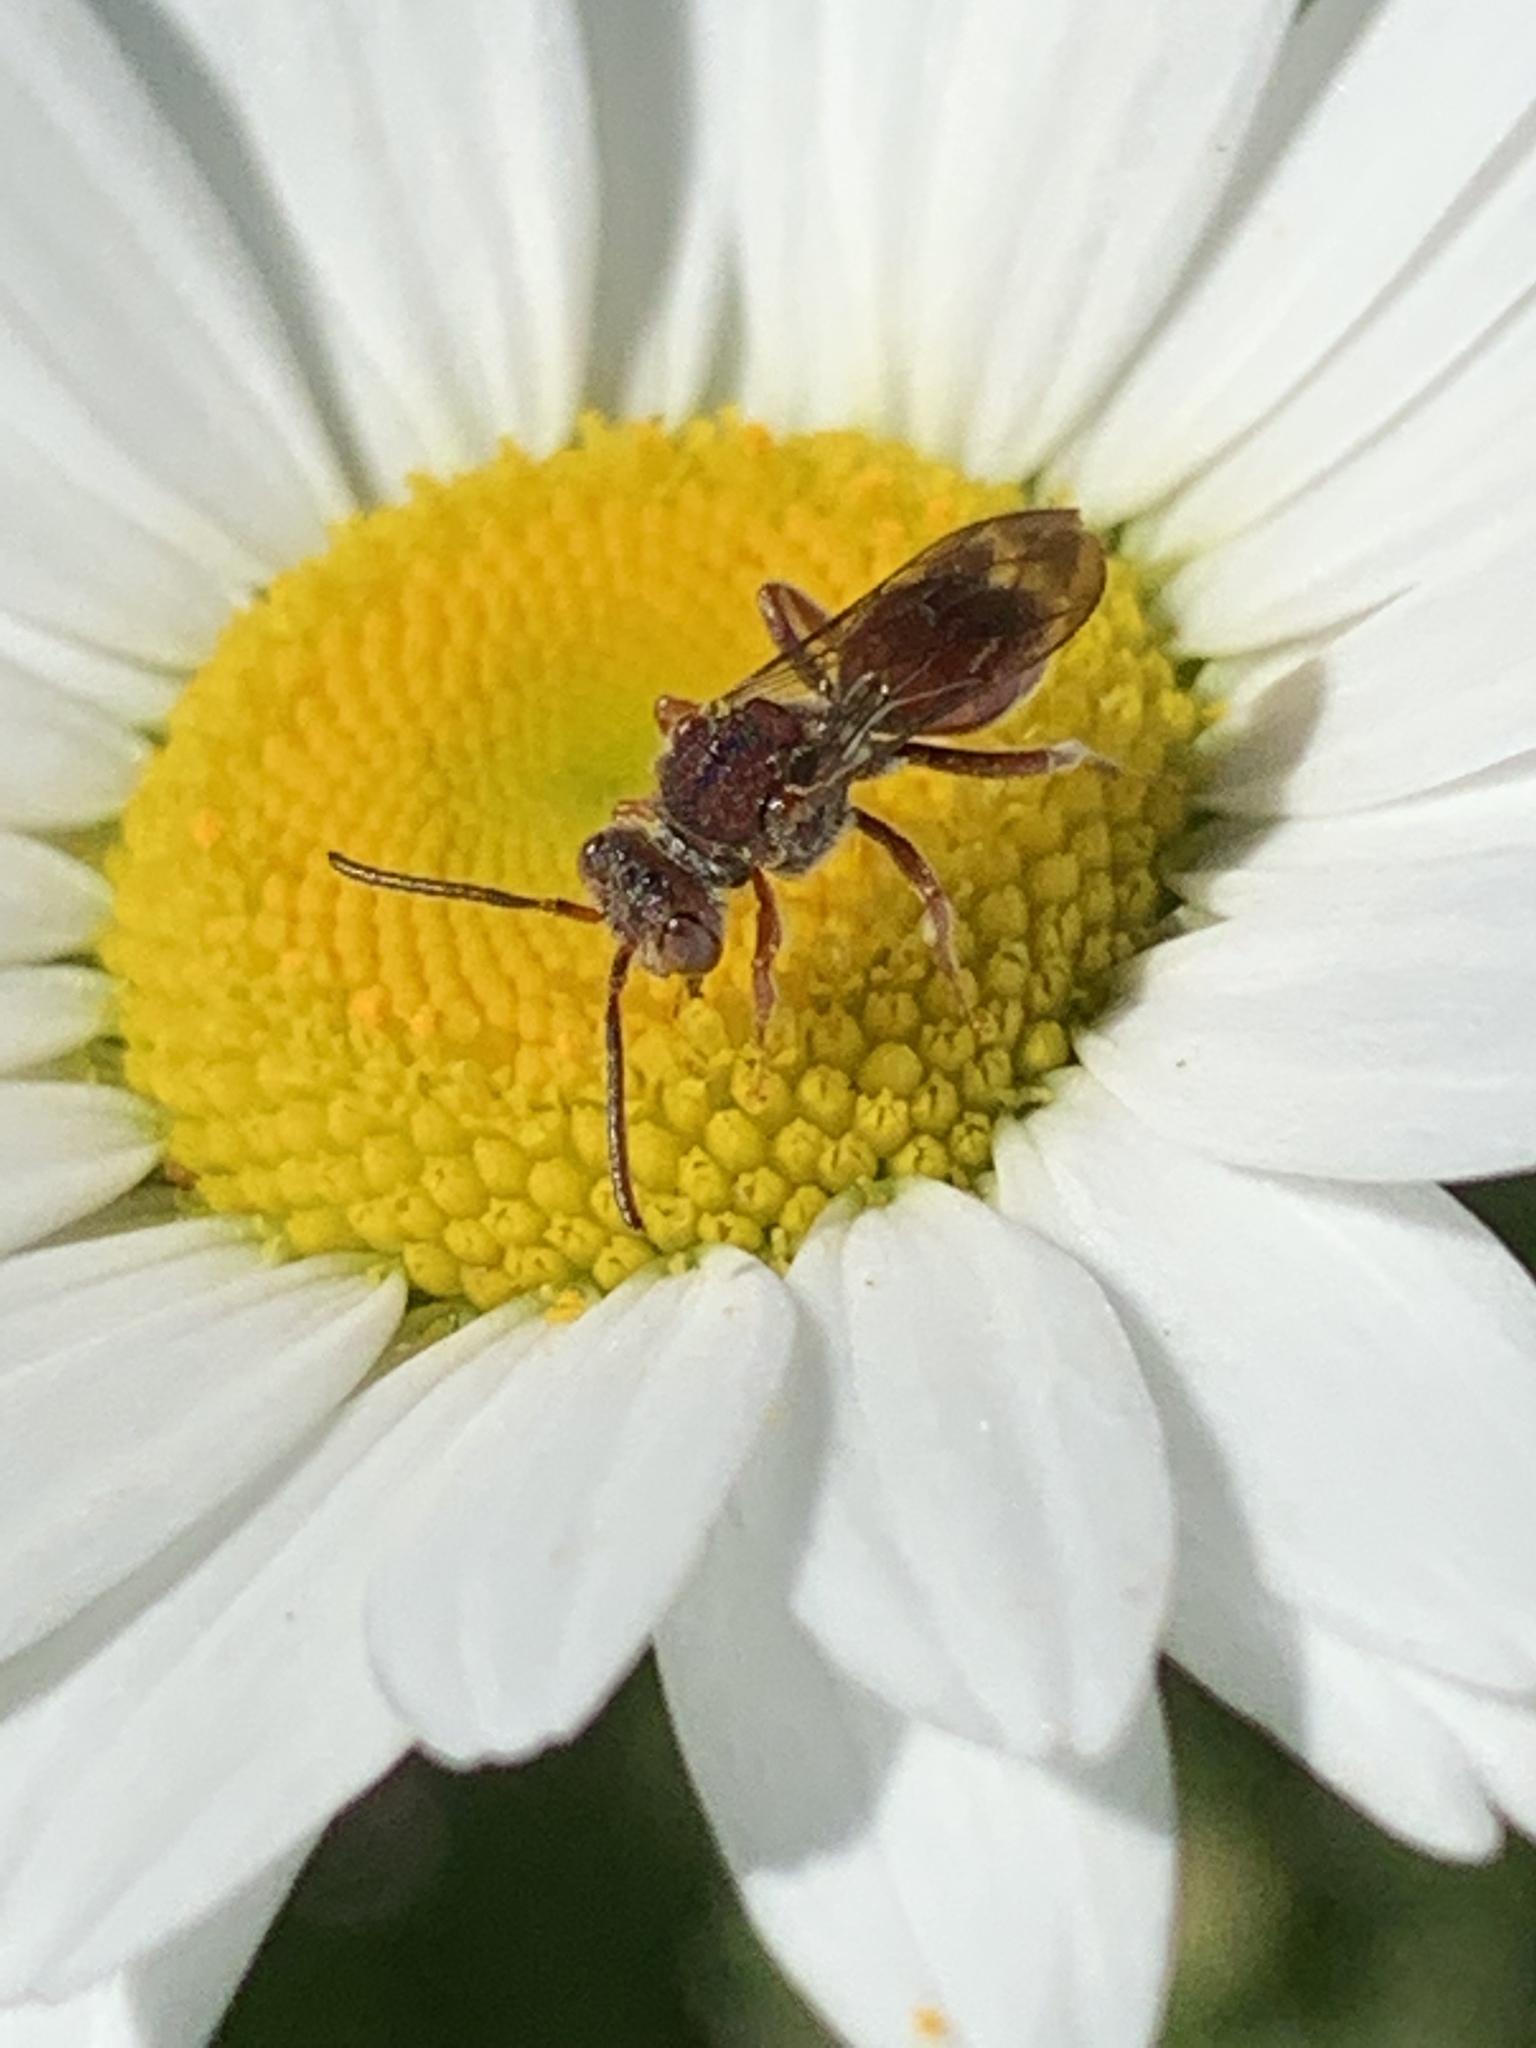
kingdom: Animalia
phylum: Arthropoda
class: Insecta
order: Hymenoptera
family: Apidae
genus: Nomada
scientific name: Nomada
